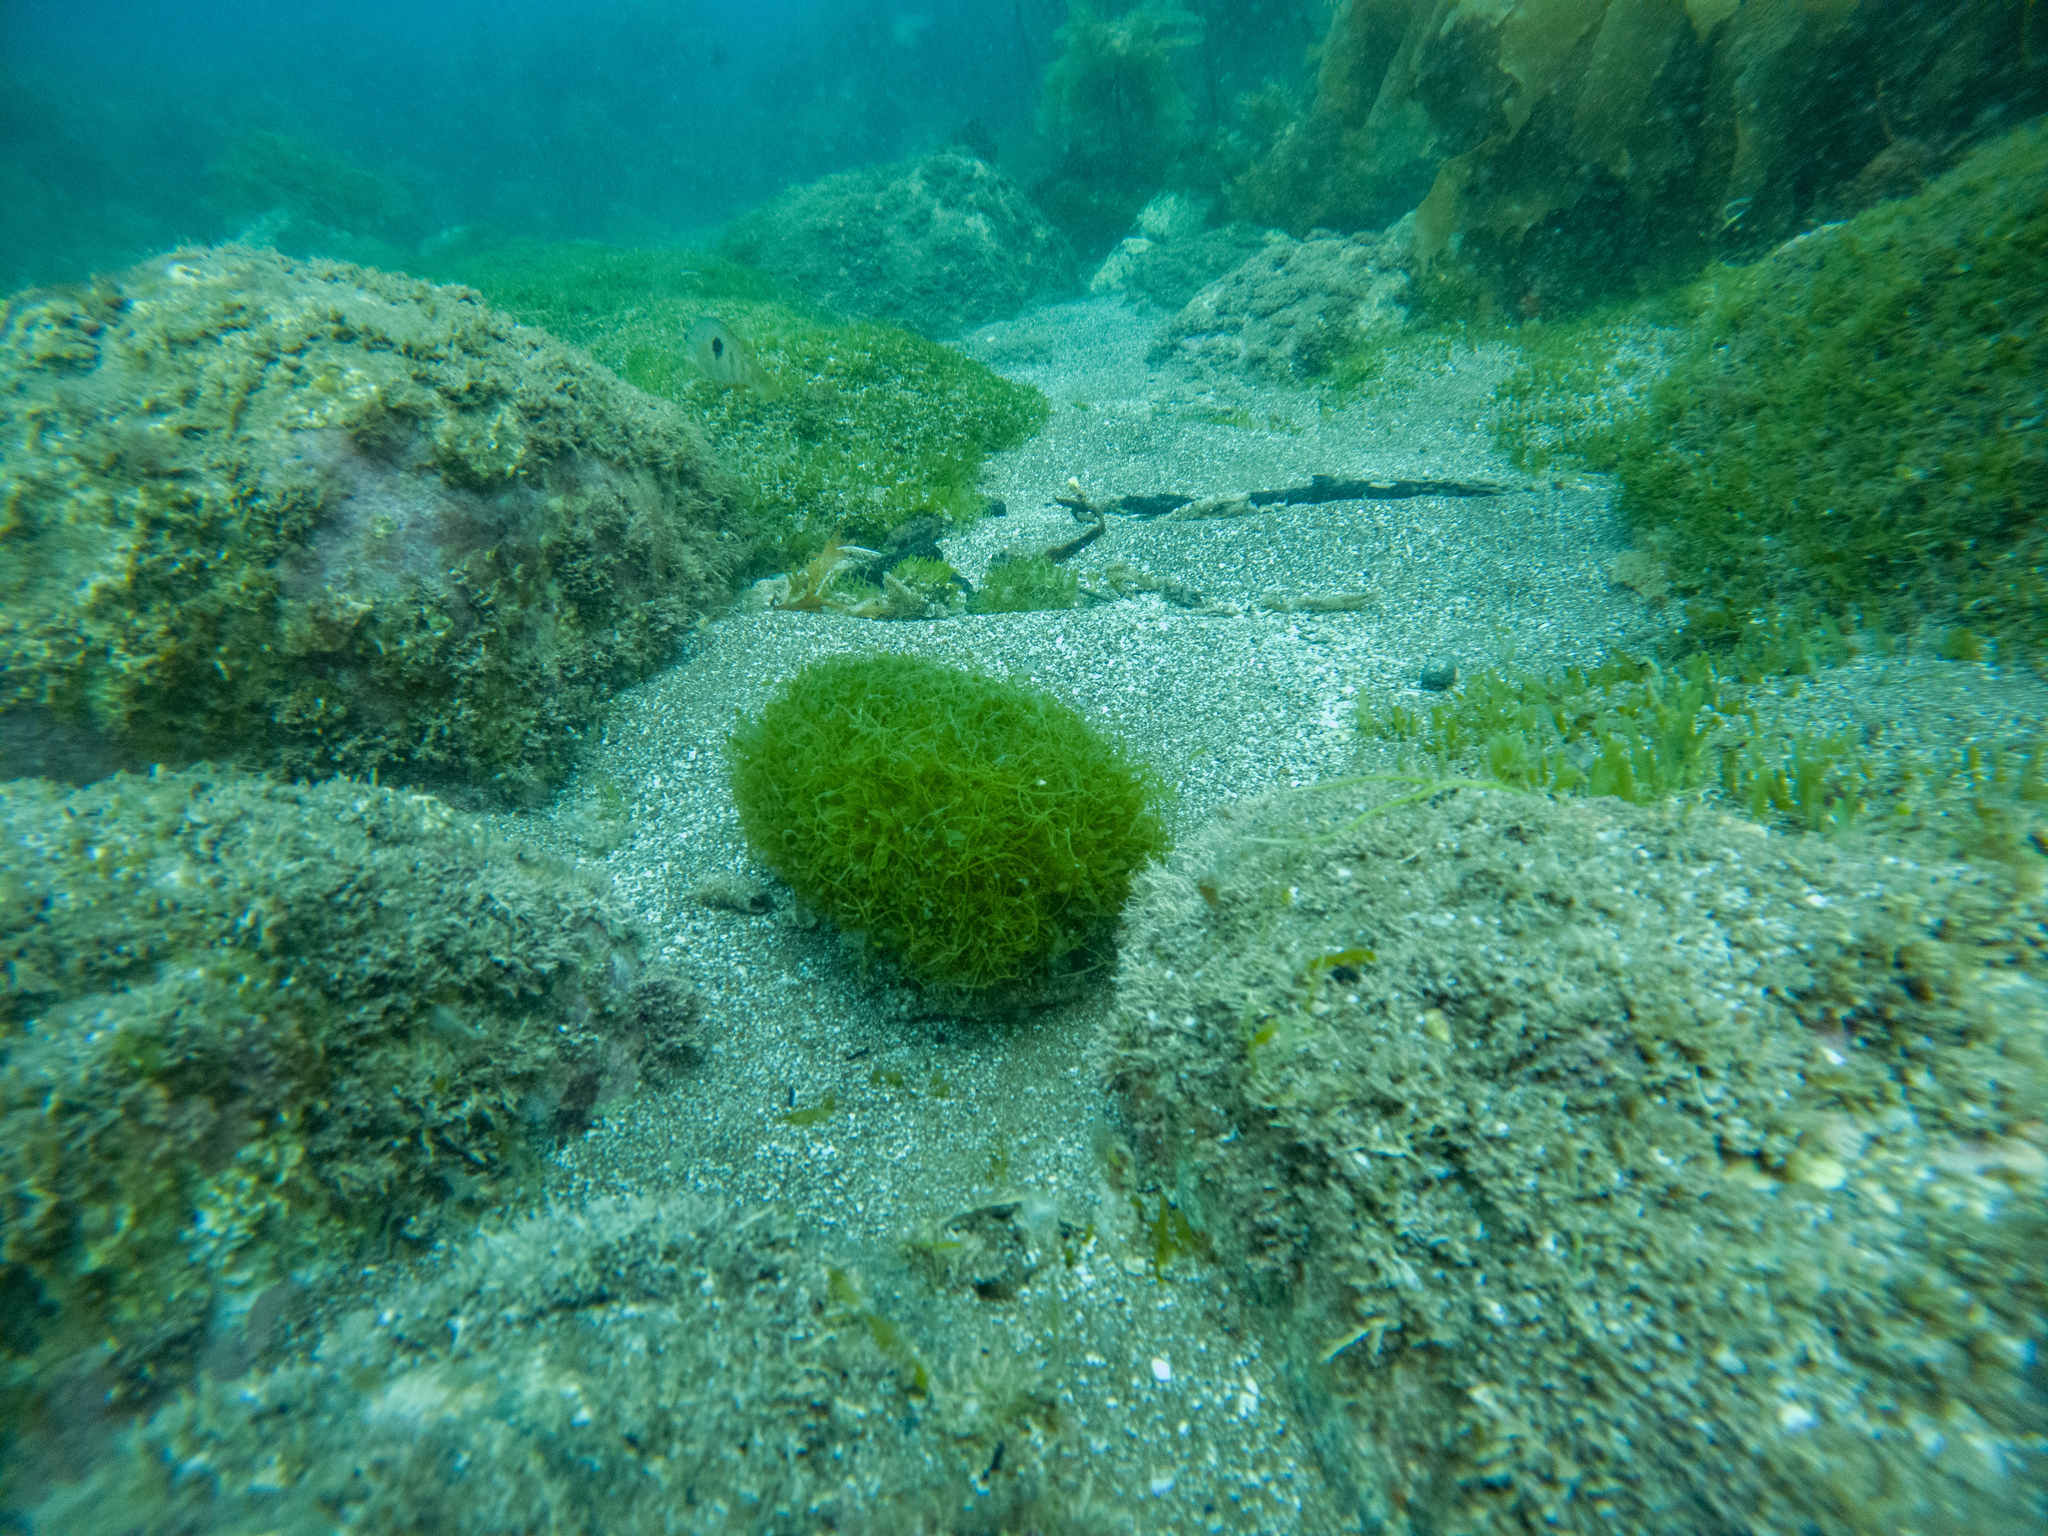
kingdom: Plantae
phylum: Chlorophyta
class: Ulvophyceae
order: Bryopsidales
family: Caulerpaceae
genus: Caulerpa
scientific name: Caulerpa brachypus
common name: Macroalgae
